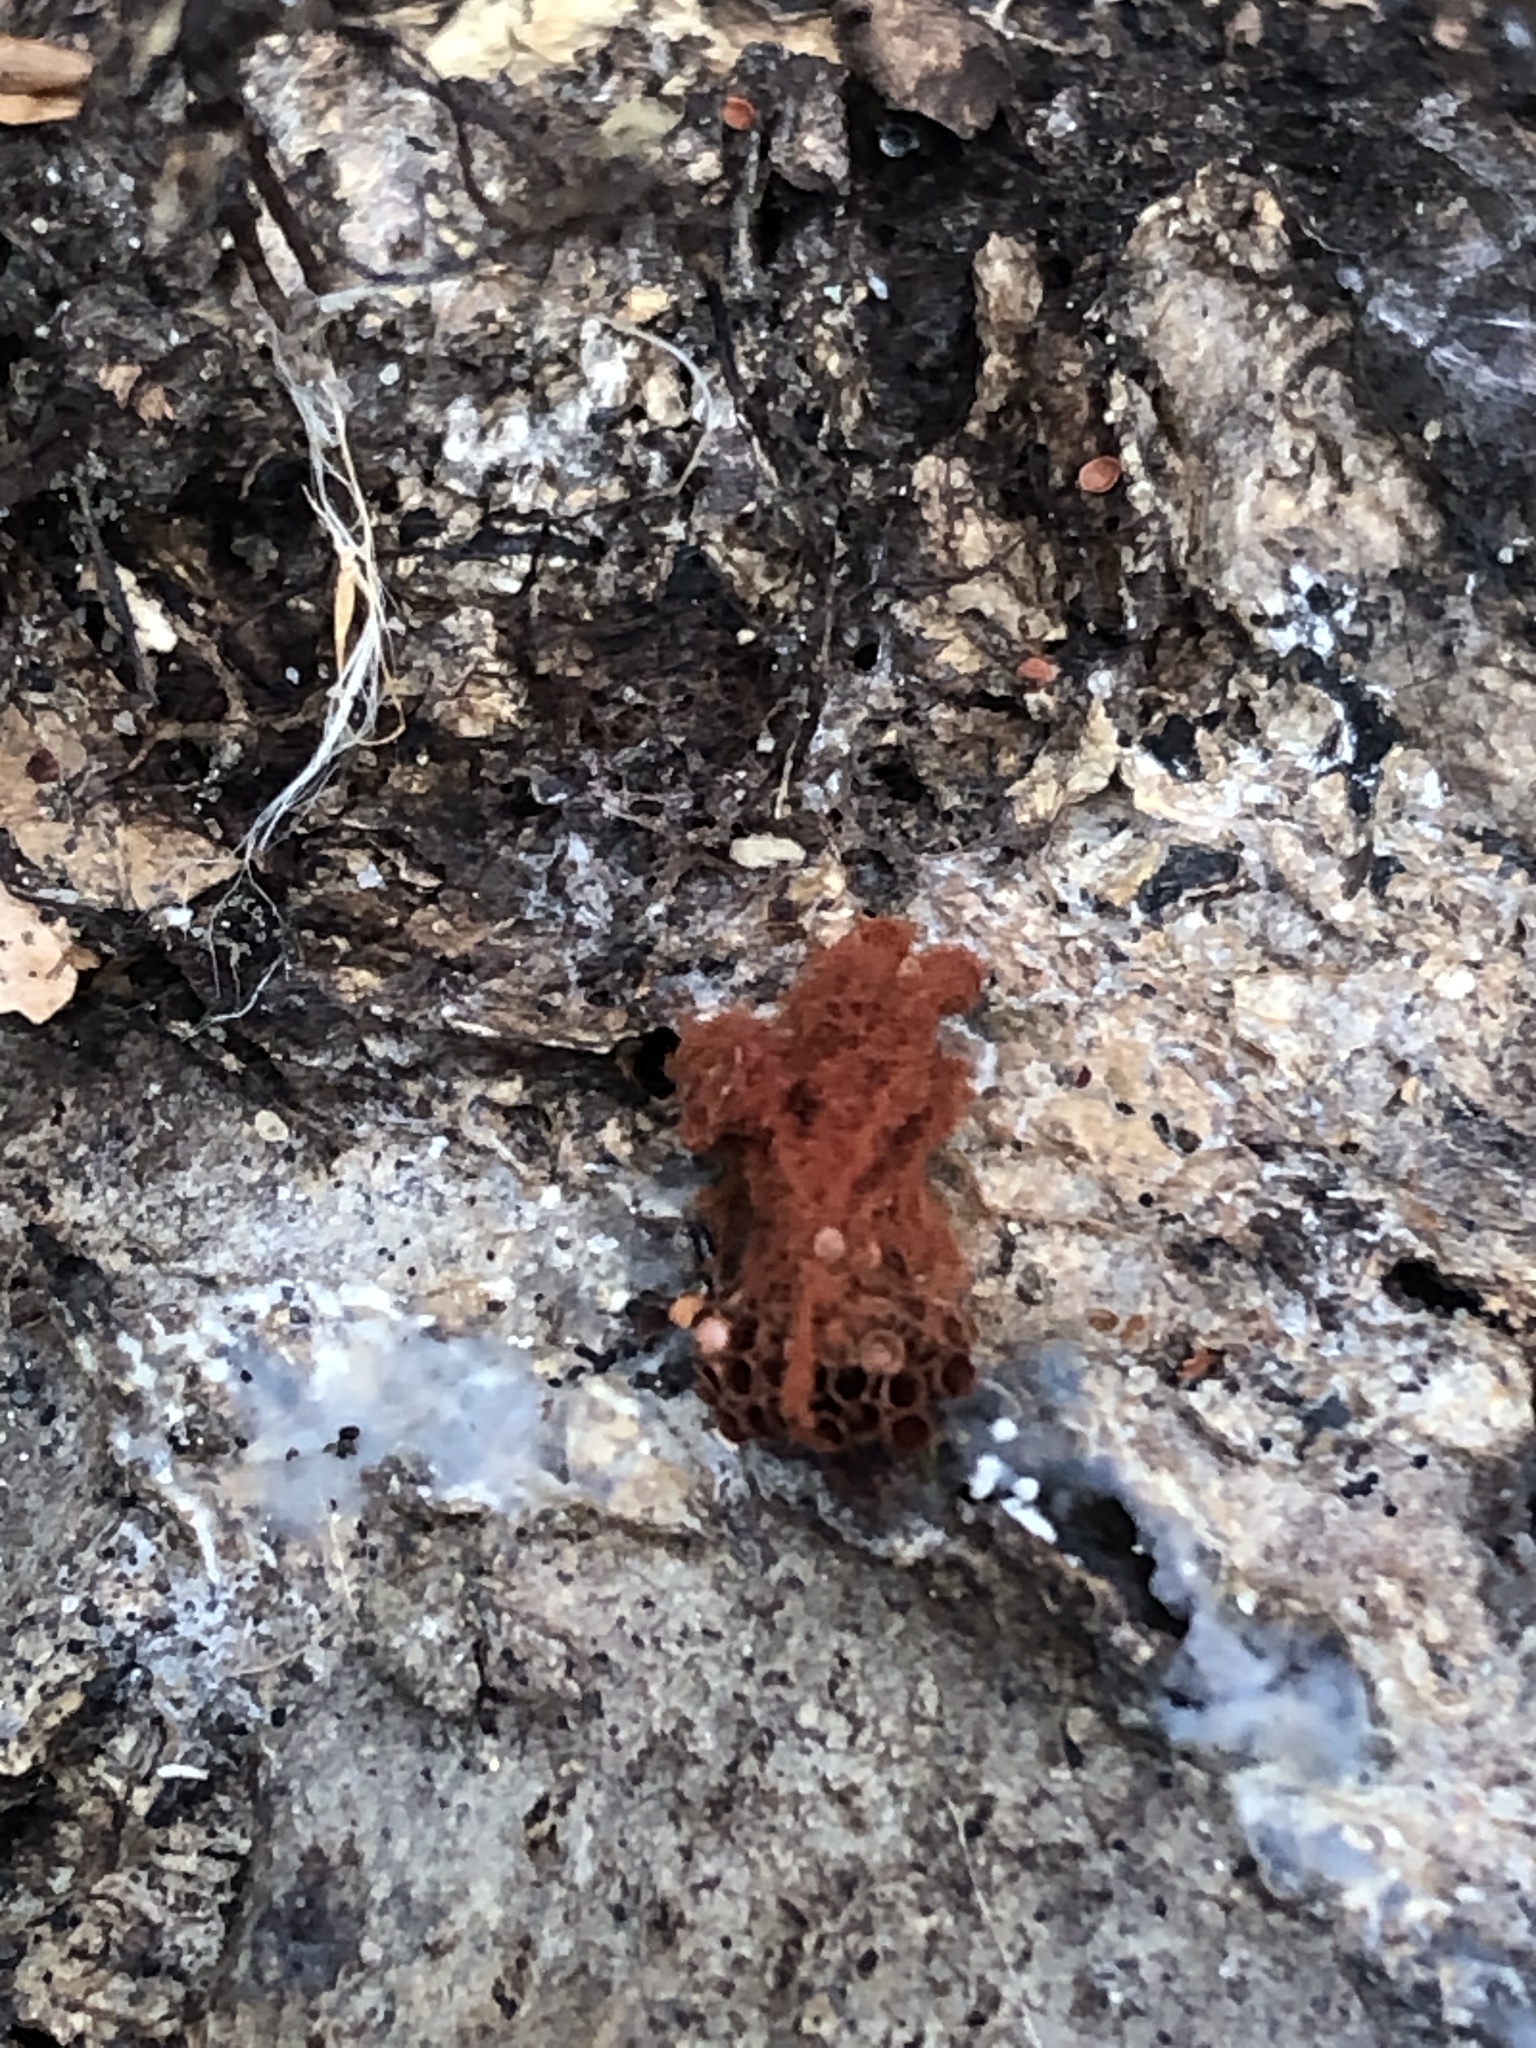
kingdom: Protozoa
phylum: Mycetozoa
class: Myxomycetes
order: Trichiales
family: Trichiaceae
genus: Metatrichia
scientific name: Metatrichia vesparia
